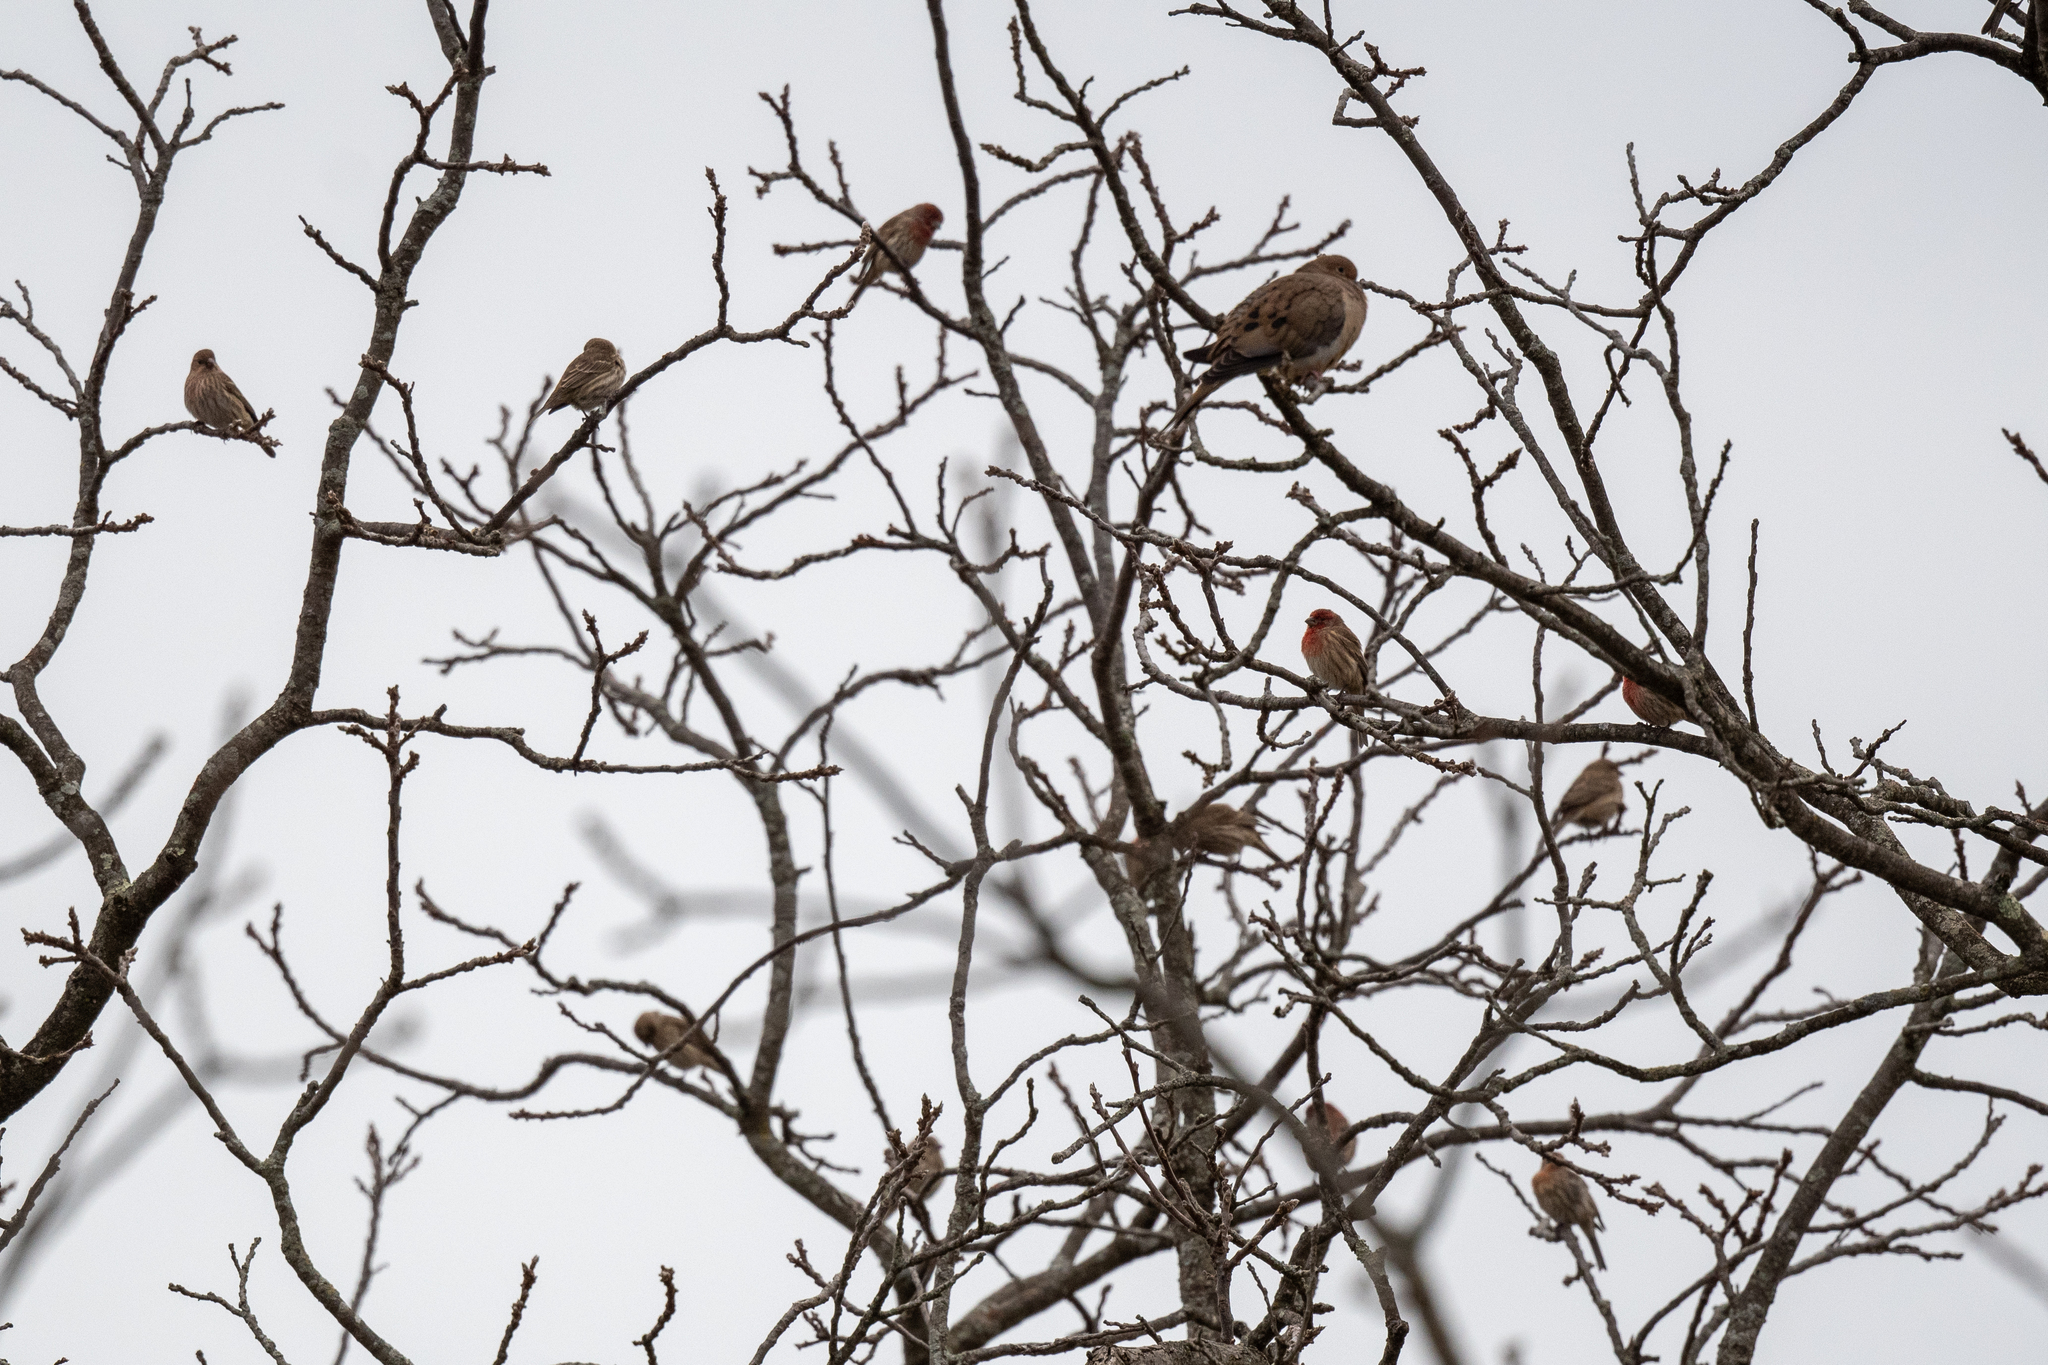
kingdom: Animalia
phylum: Chordata
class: Aves
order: Passeriformes
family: Fringillidae
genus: Haemorhous
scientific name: Haemorhous mexicanus
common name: House finch
